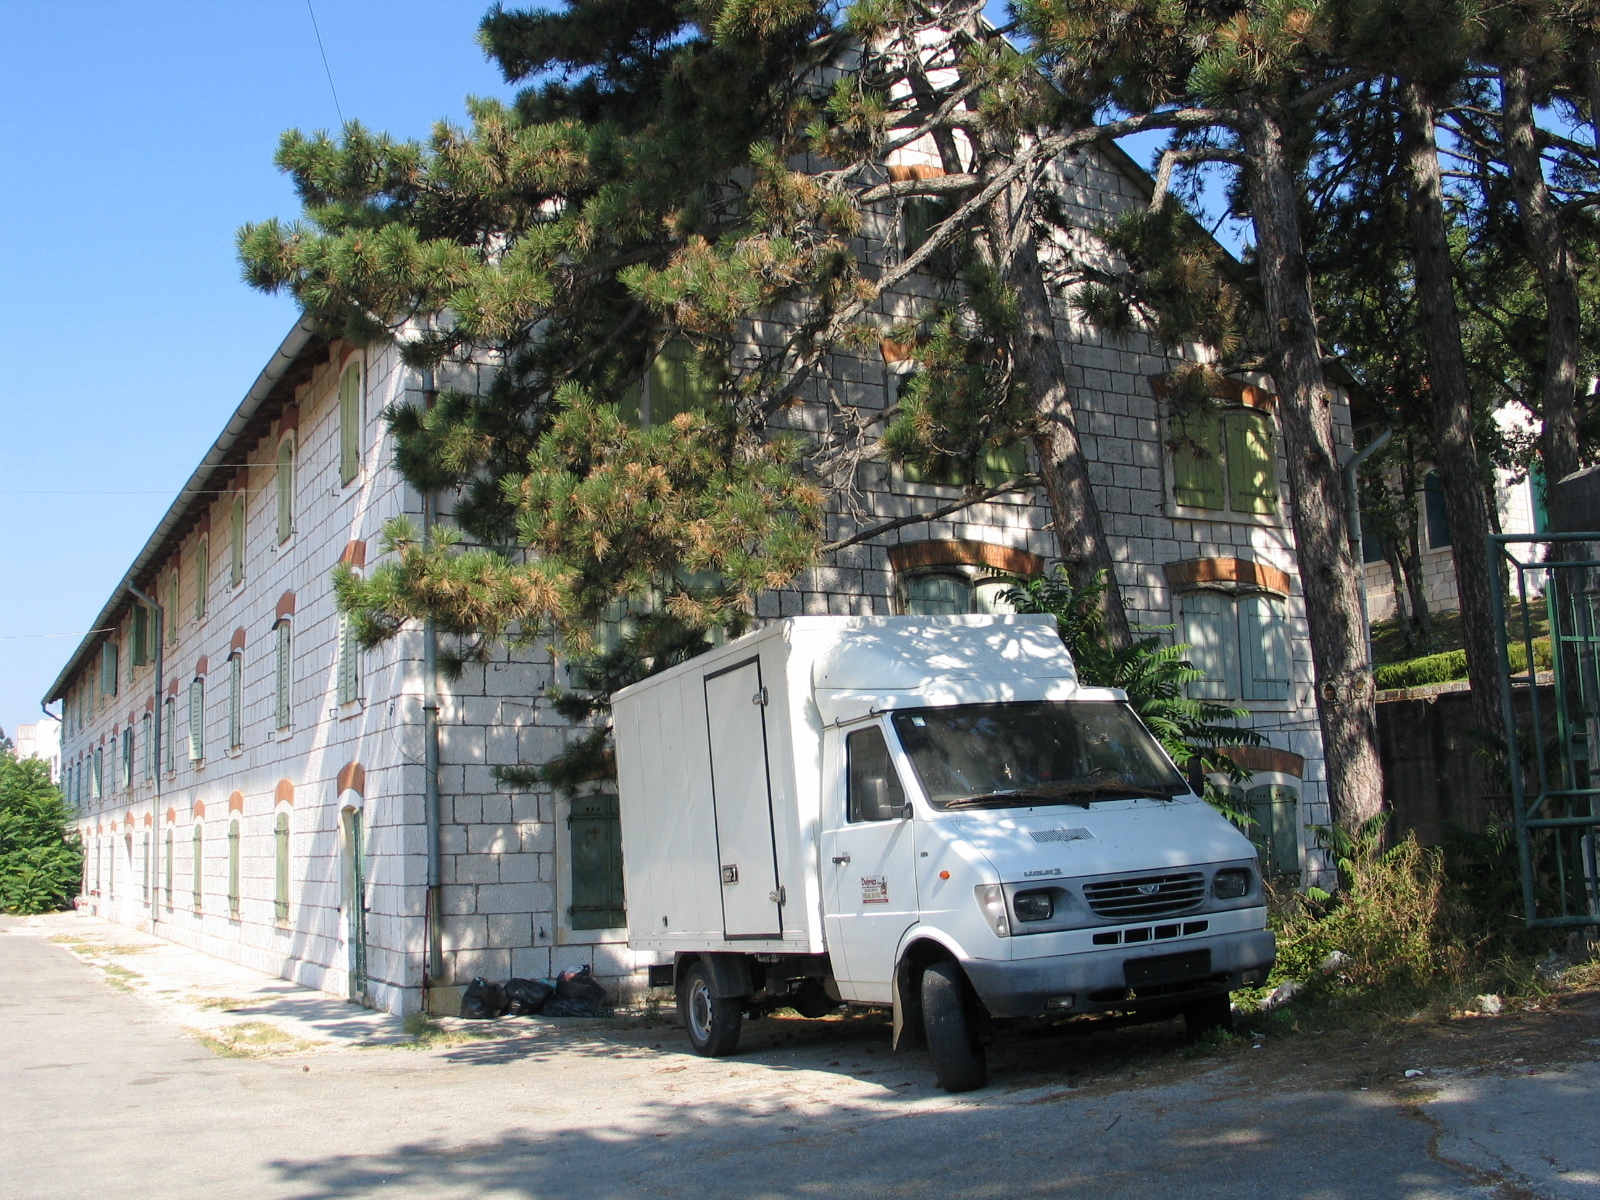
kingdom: Plantae
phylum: Tracheophyta
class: Pinopsida
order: Pinales
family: Pinaceae
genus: Pinus
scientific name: Pinus nigra
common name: Austrian pine
